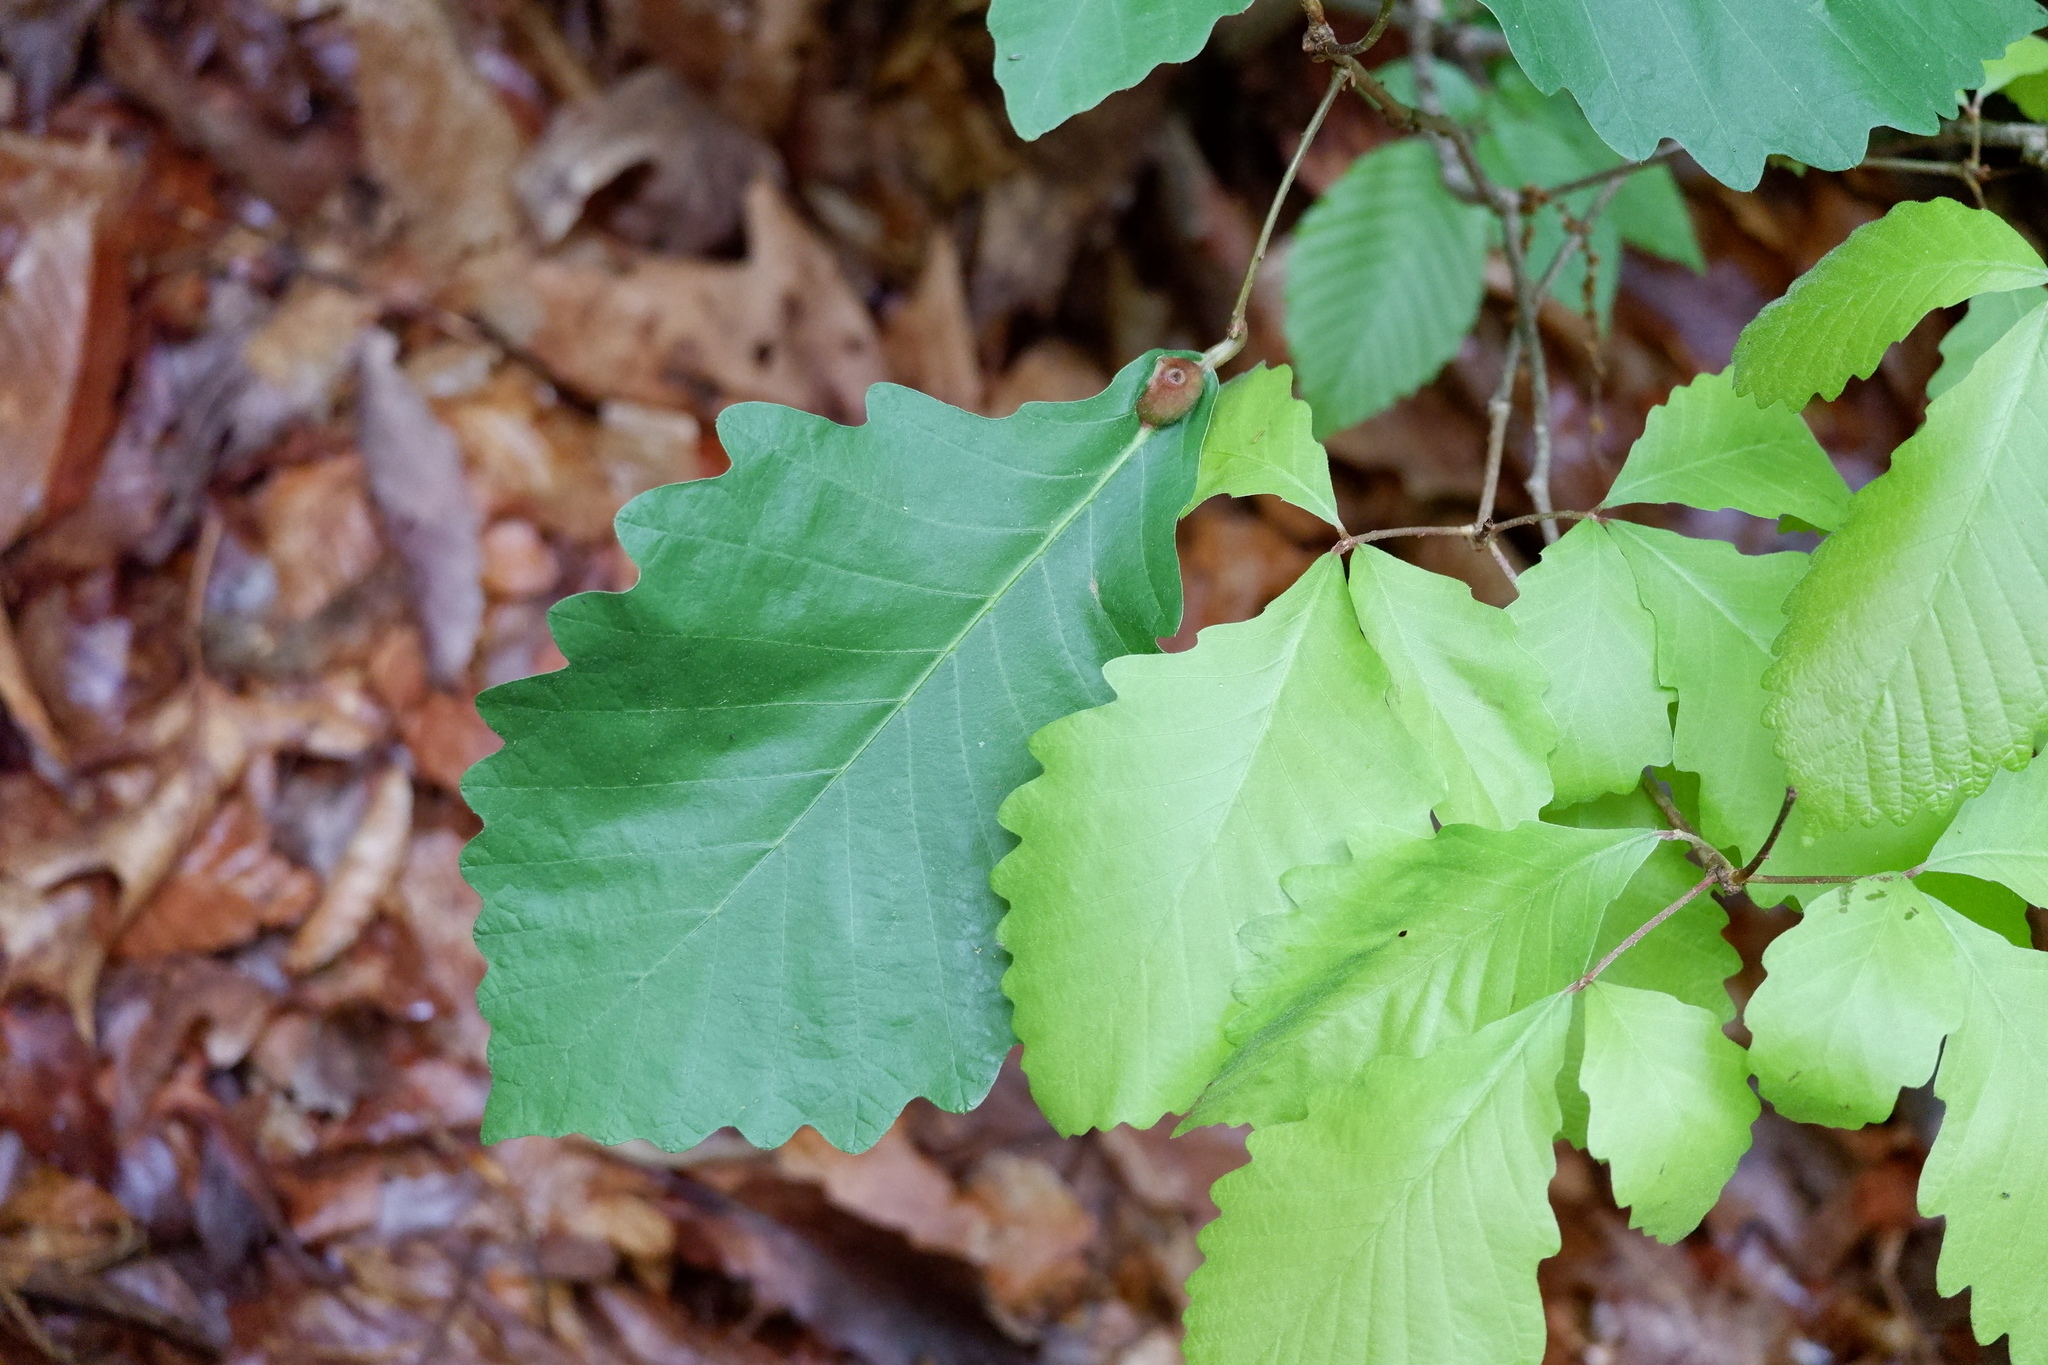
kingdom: Animalia
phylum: Arthropoda
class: Insecta
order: Hymenoptera
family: Cynipidae
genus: Andricus
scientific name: Andricus
